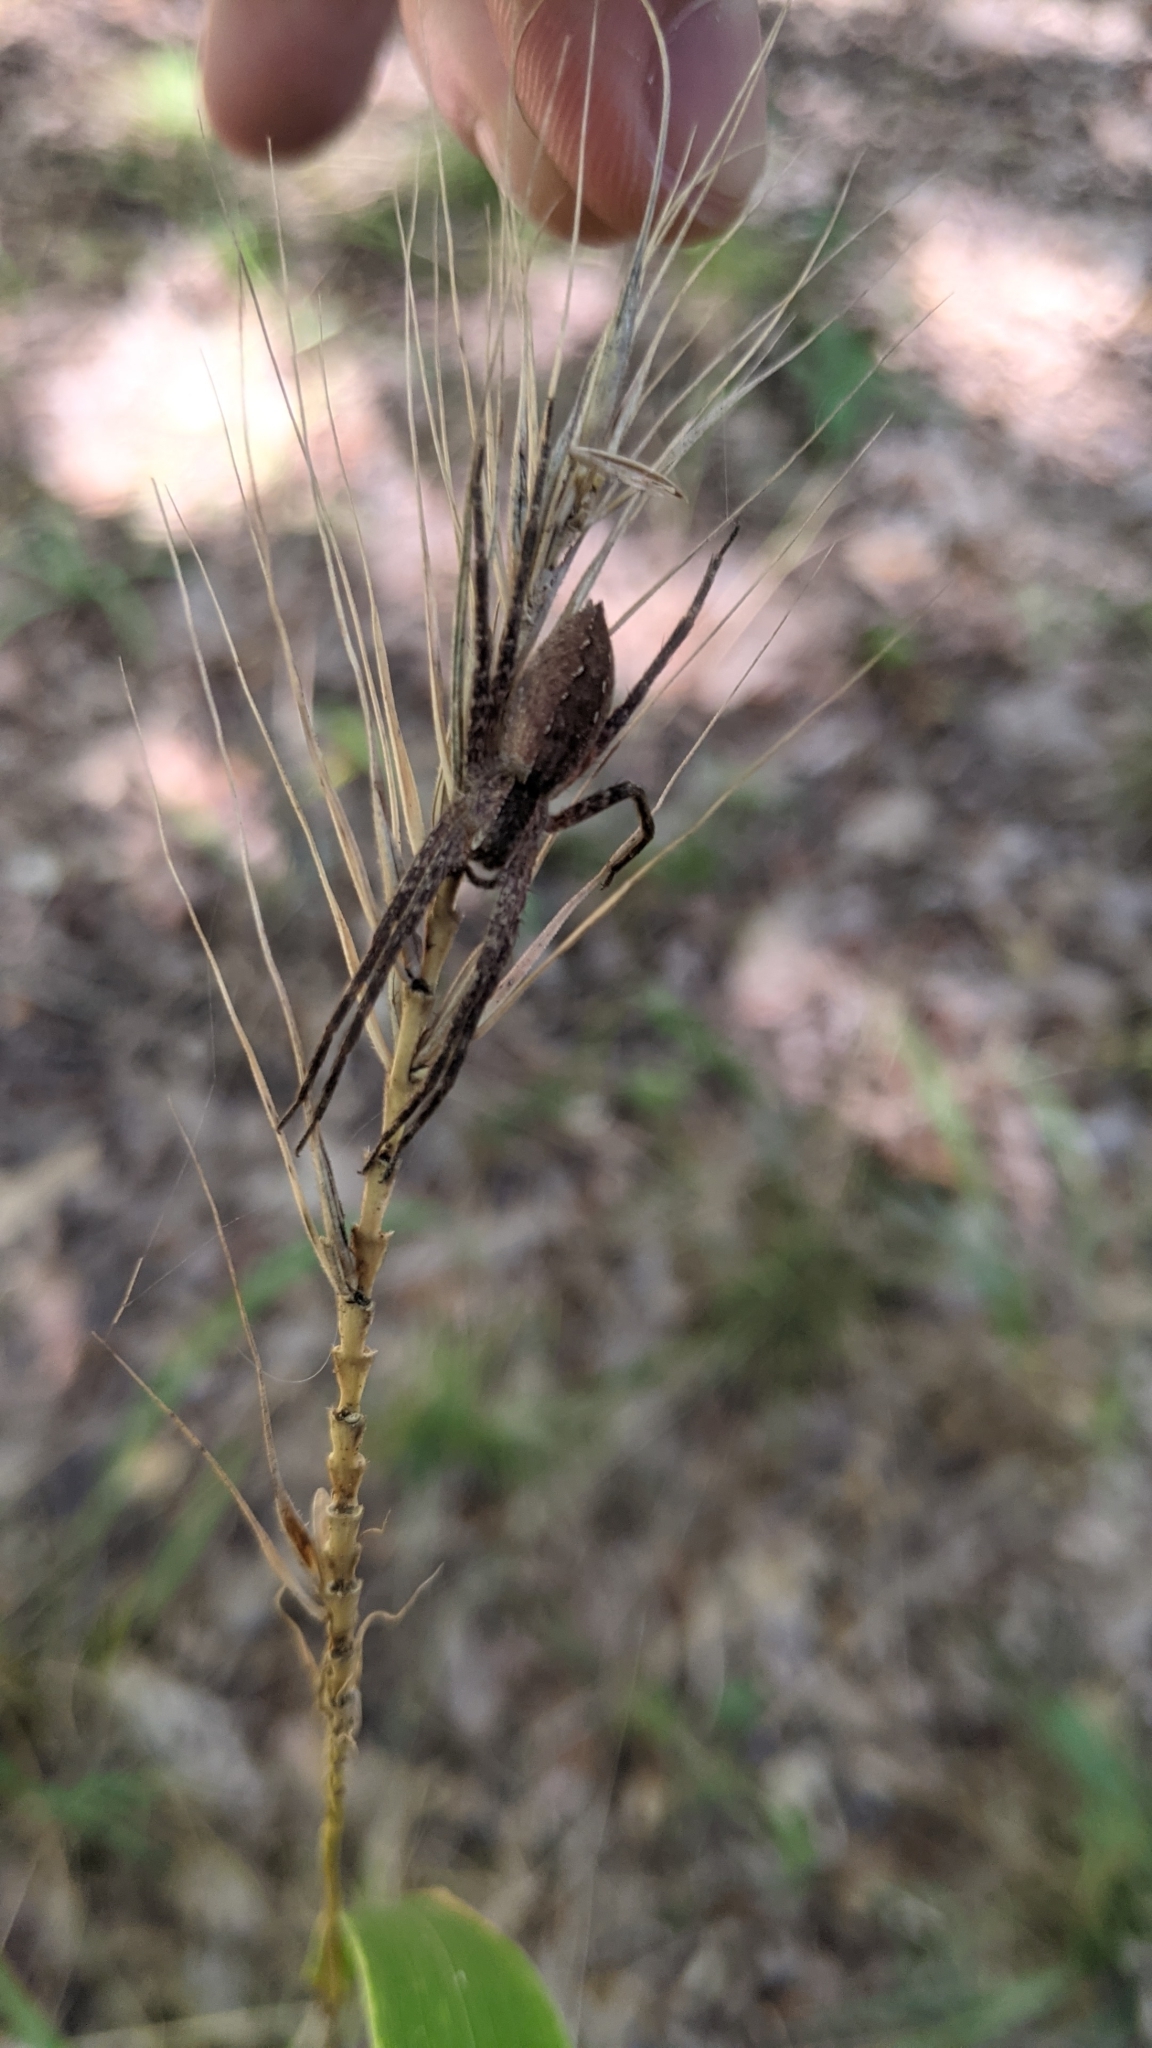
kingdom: Animalia
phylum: Arthropoda
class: Arachnida
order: Araneae
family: Pisauridae
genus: Pisaurina
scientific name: Pisaurina mira
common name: American nursery web spider
